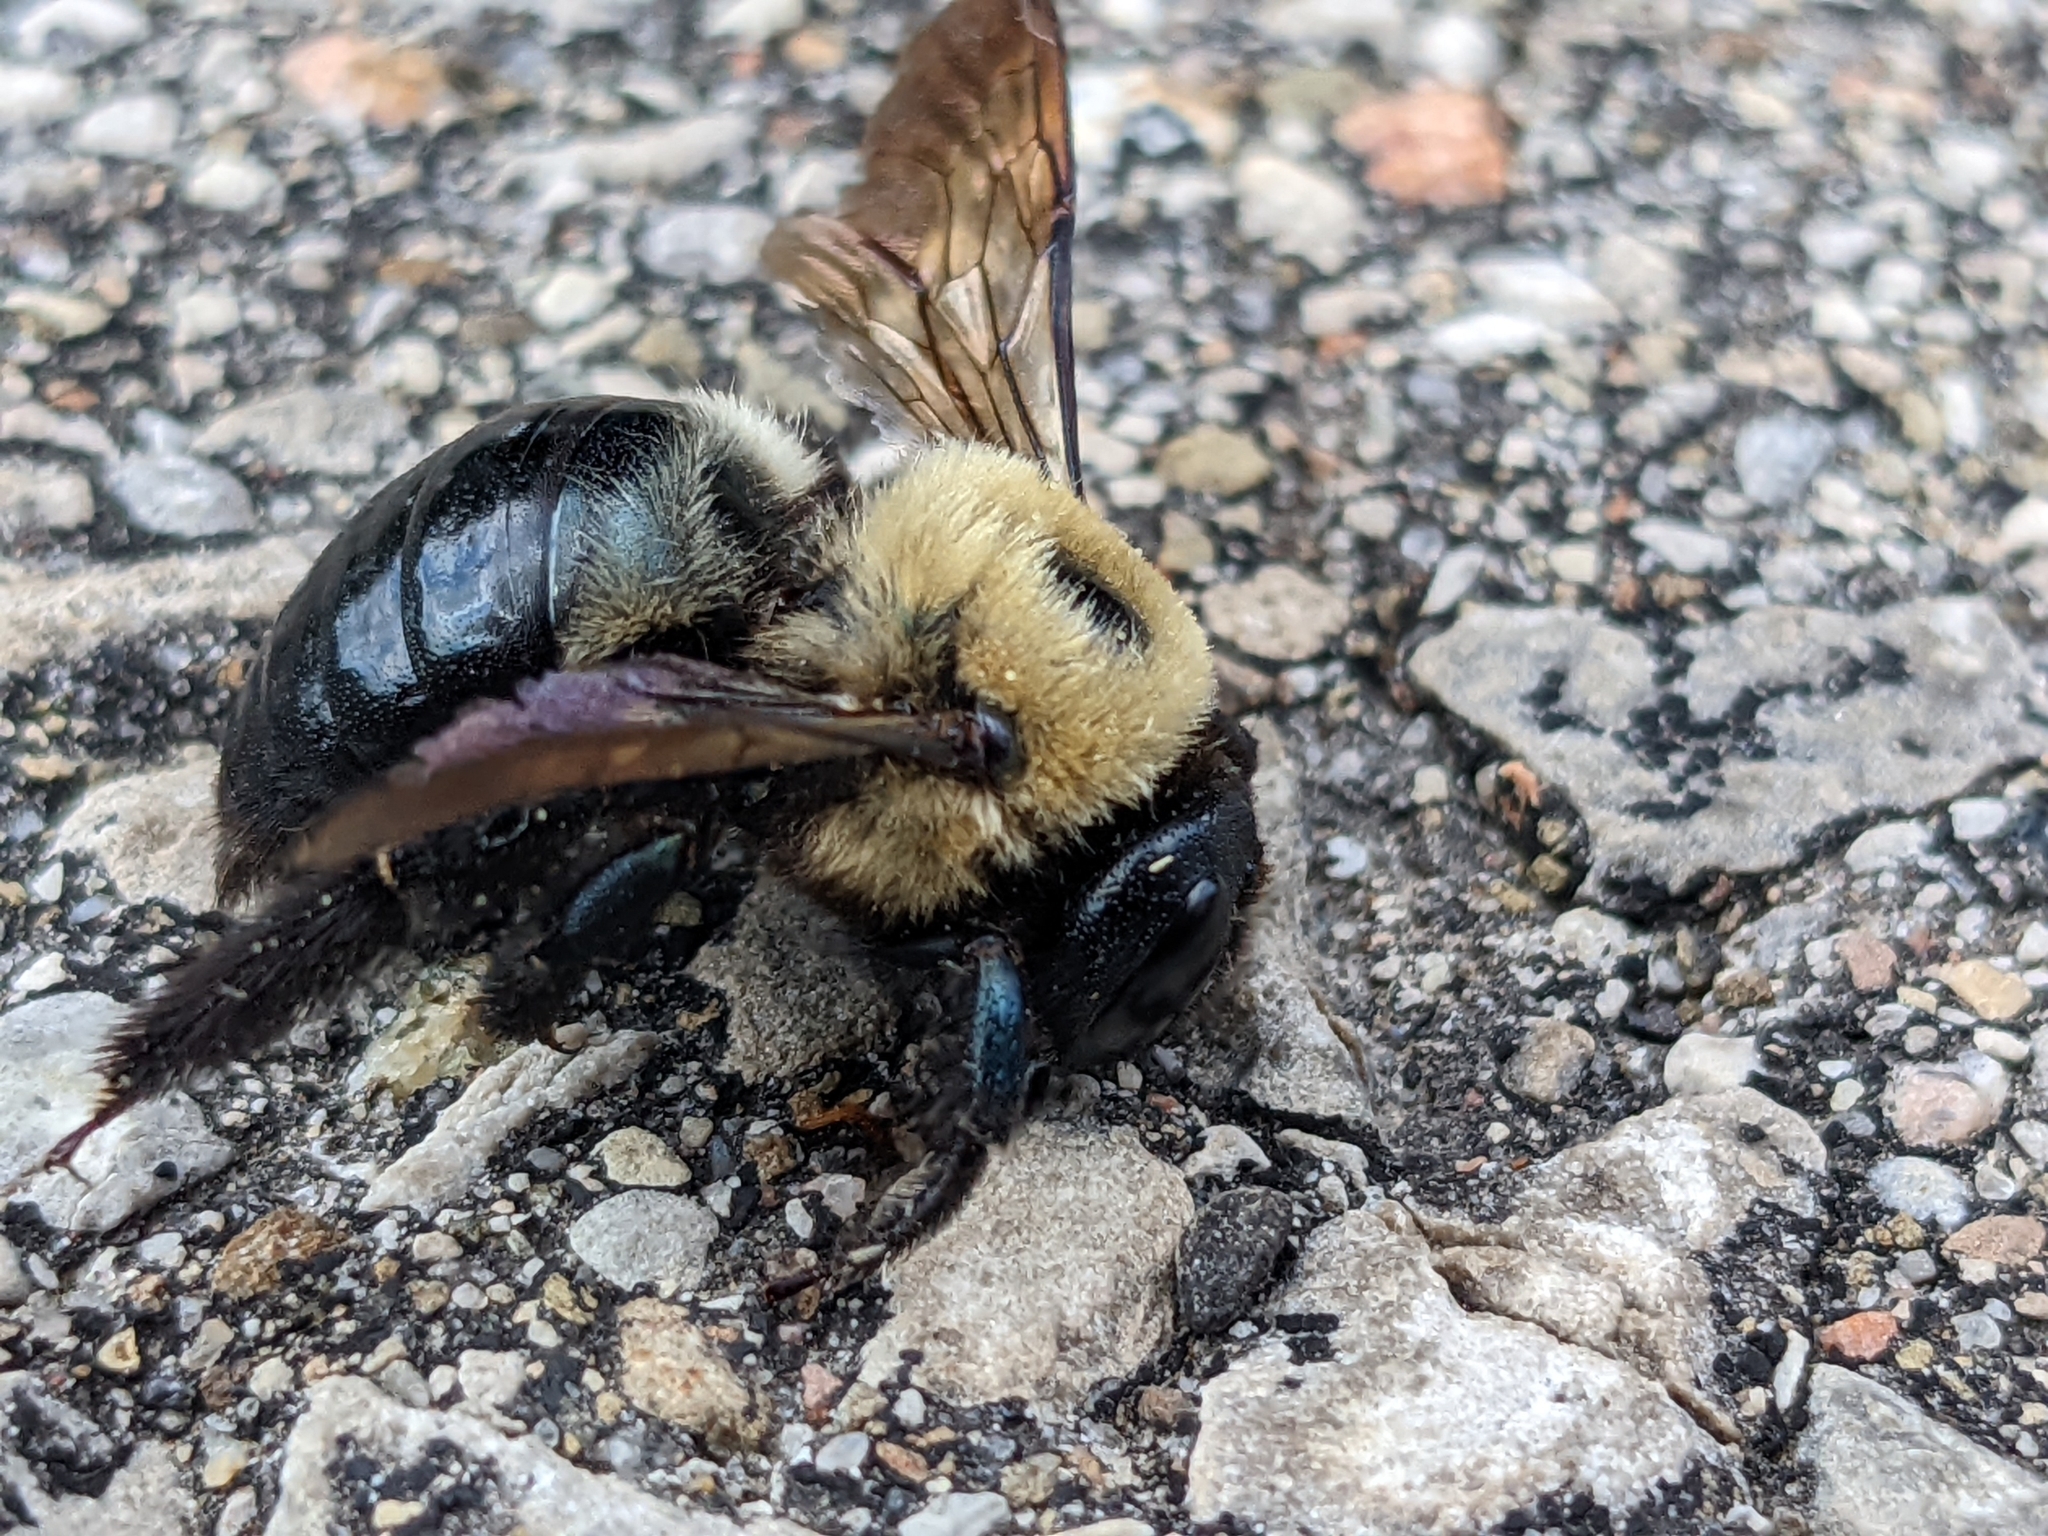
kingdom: Animalia
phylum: Arthropoda
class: Insecta
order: Hymenoptera
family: Apidae
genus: Xylocopa
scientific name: Xylocopa virginica
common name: Carpenter bee
